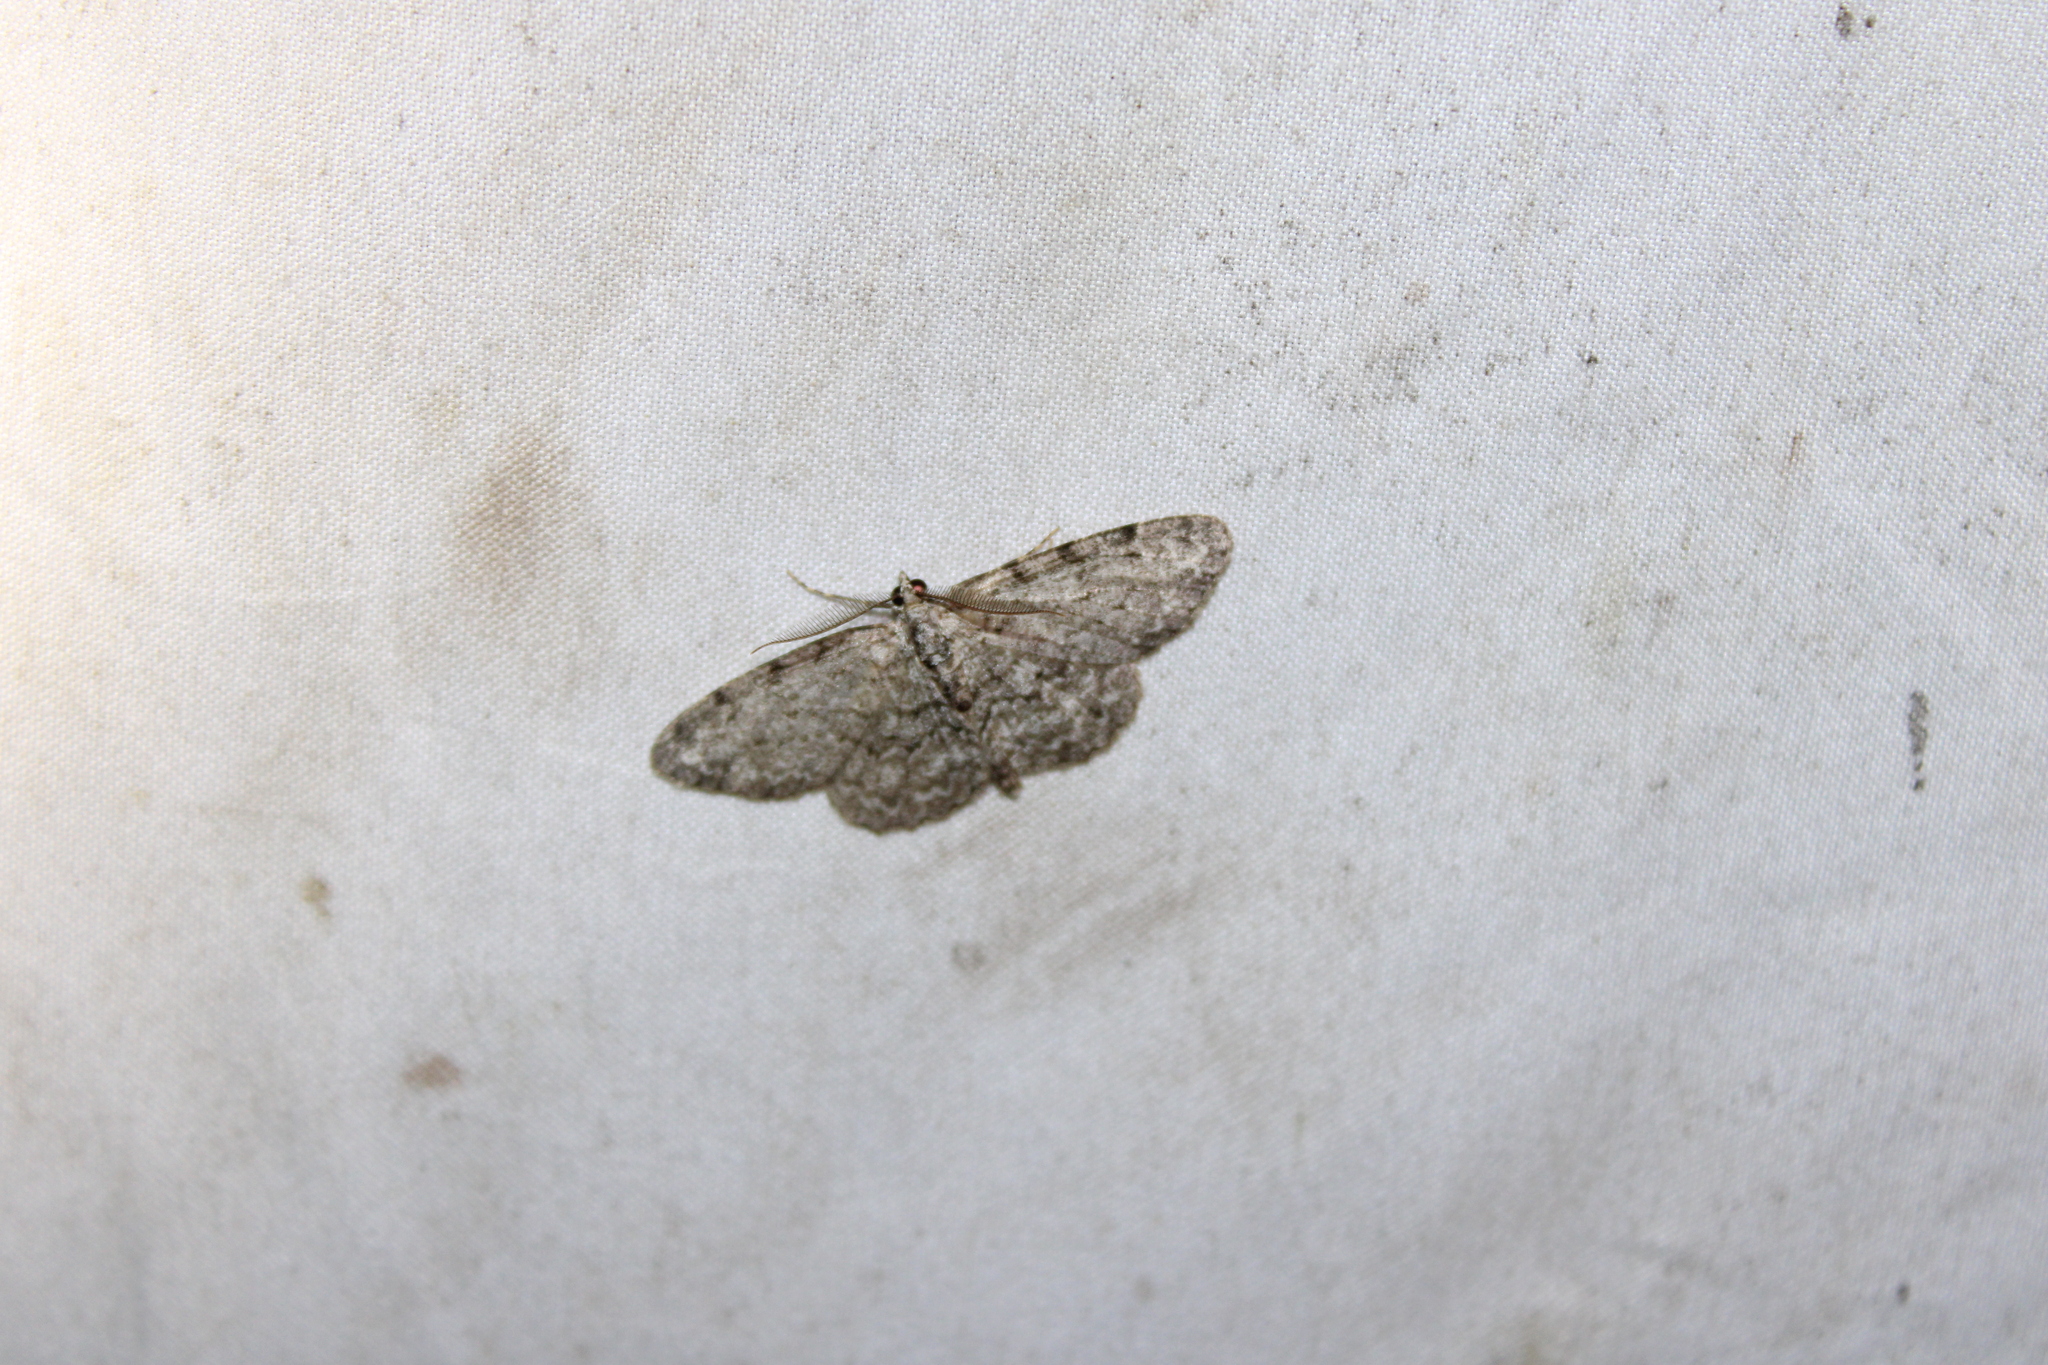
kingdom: Animalia
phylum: Arthropoda
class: Insecta
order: Lepidoptera
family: Geometridae
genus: Protoboarmia
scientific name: Protoboarmia porcelaria
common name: Porcelain gray
